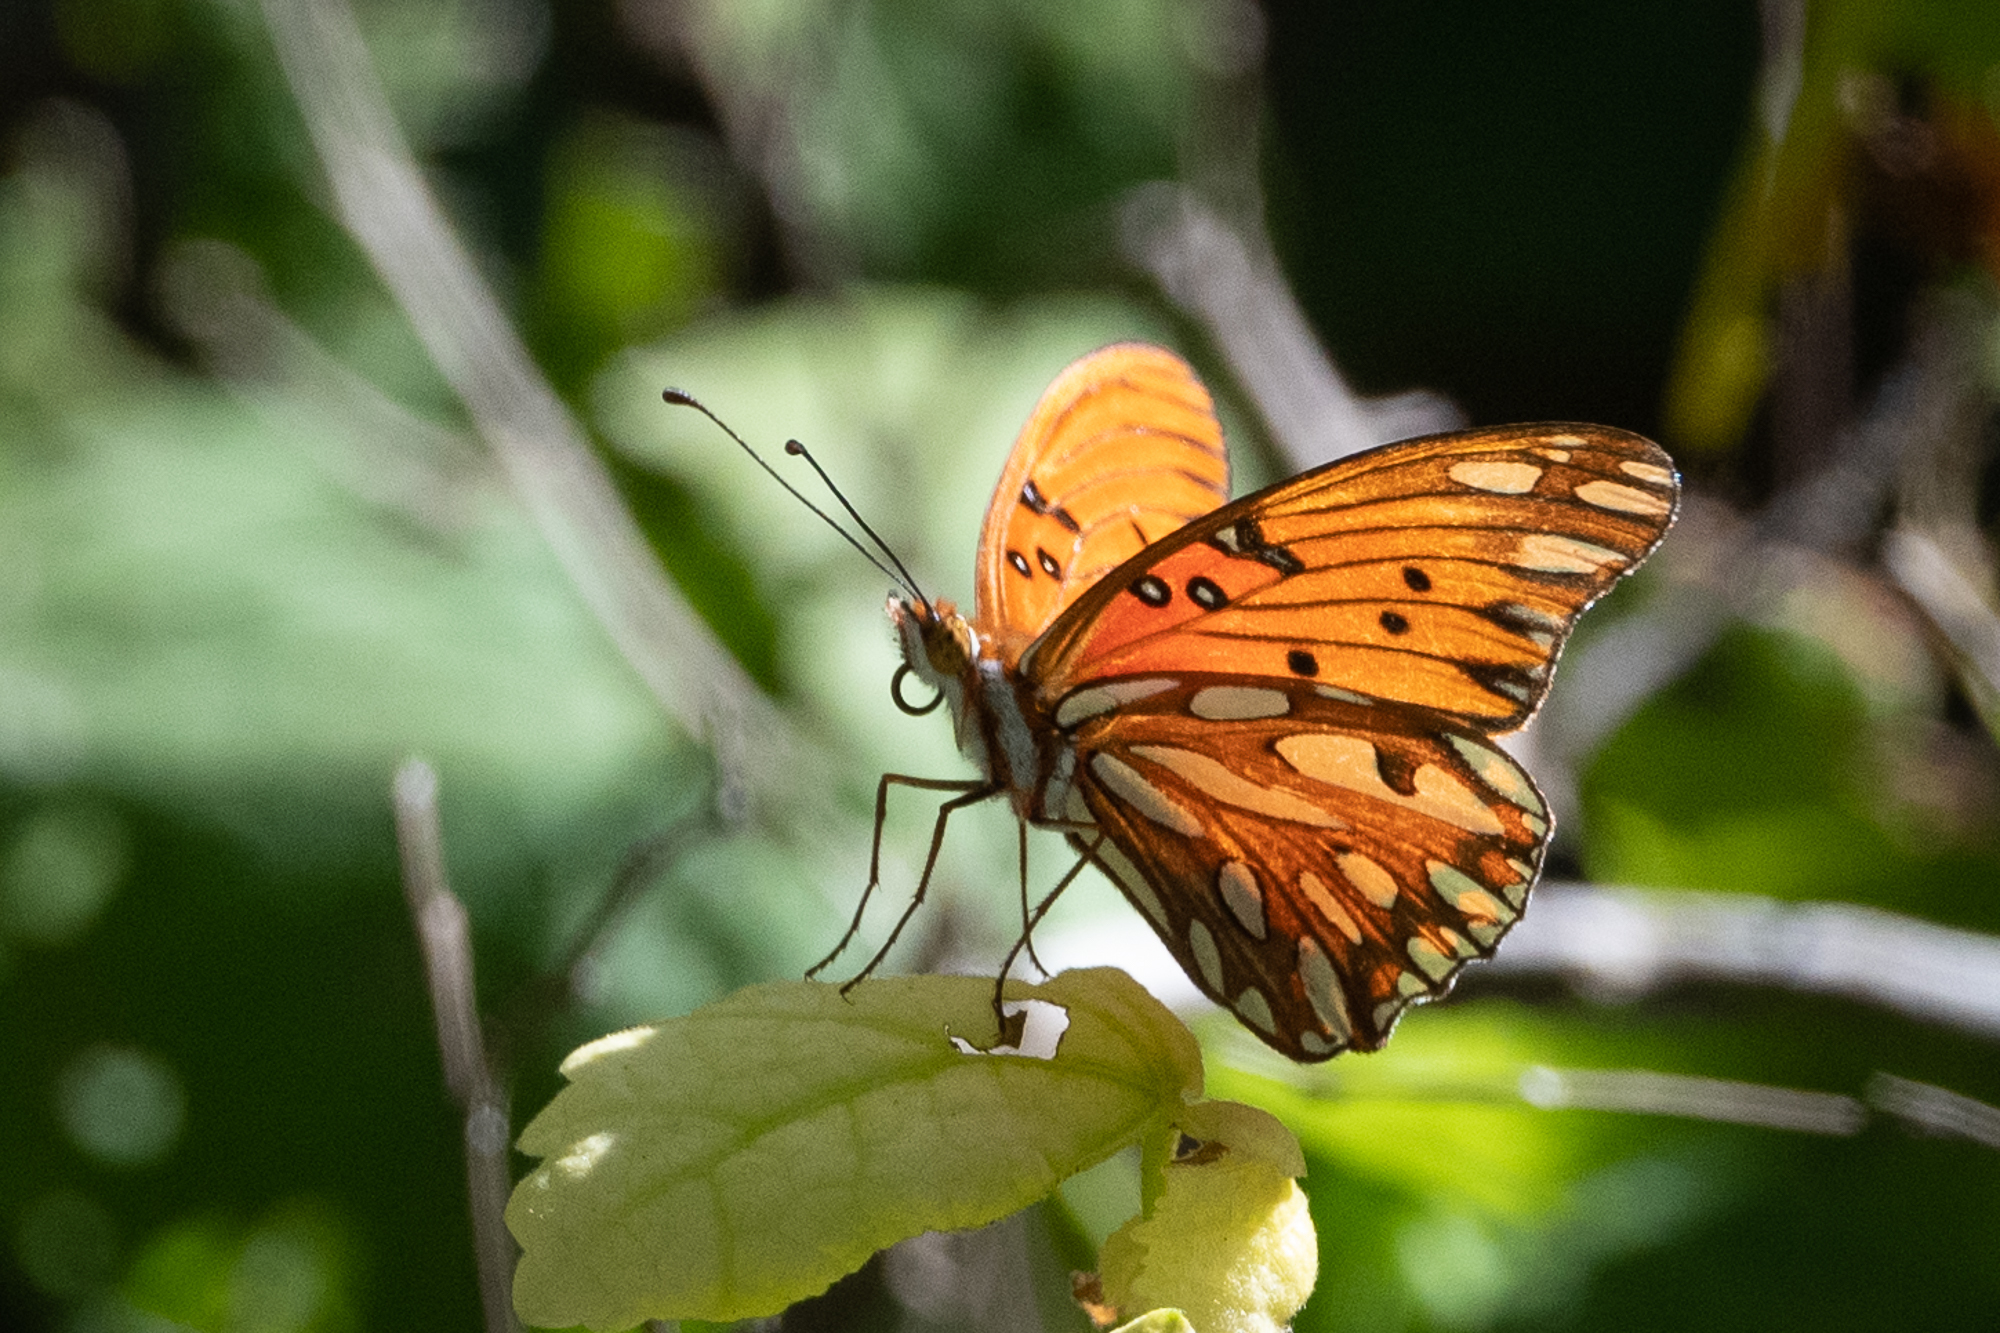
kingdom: Animalia
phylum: Arthropoda
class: Insecta
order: Lepidoptera
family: Nymphalidae
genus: Dione
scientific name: Dione vanillae
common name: Gulf fritillary
